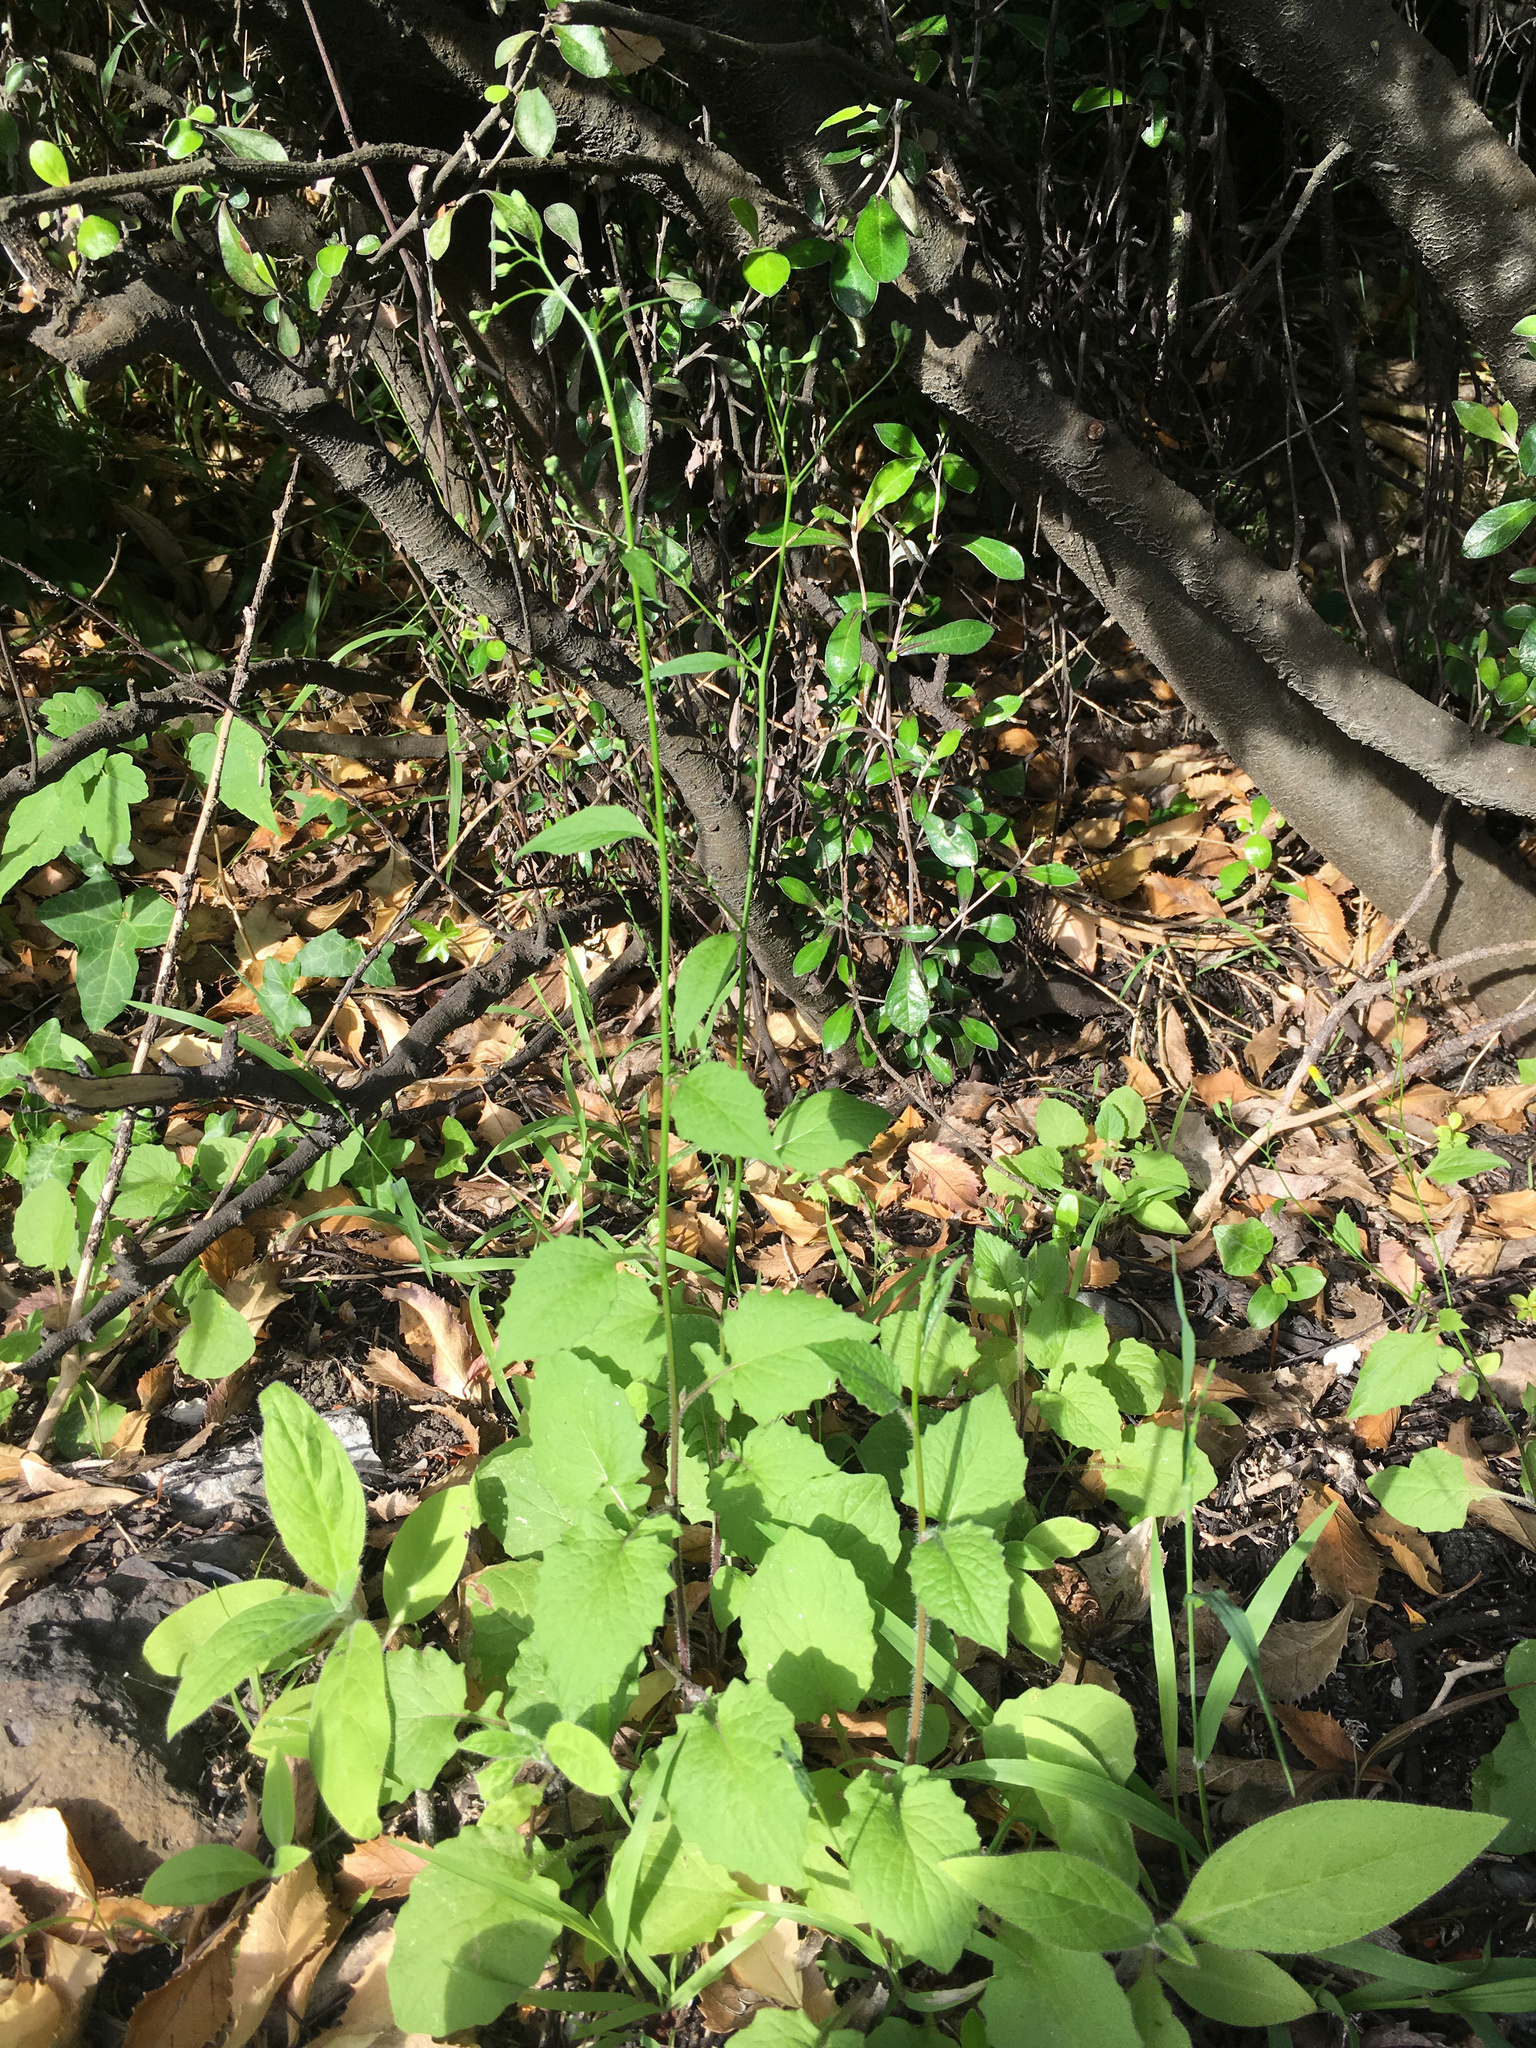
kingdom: Plantae
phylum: Tracheophyta
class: Magnoliopsida
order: Asterales
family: Asteraceae
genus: Lapsana
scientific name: Lapsana communis
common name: Nipplewort
